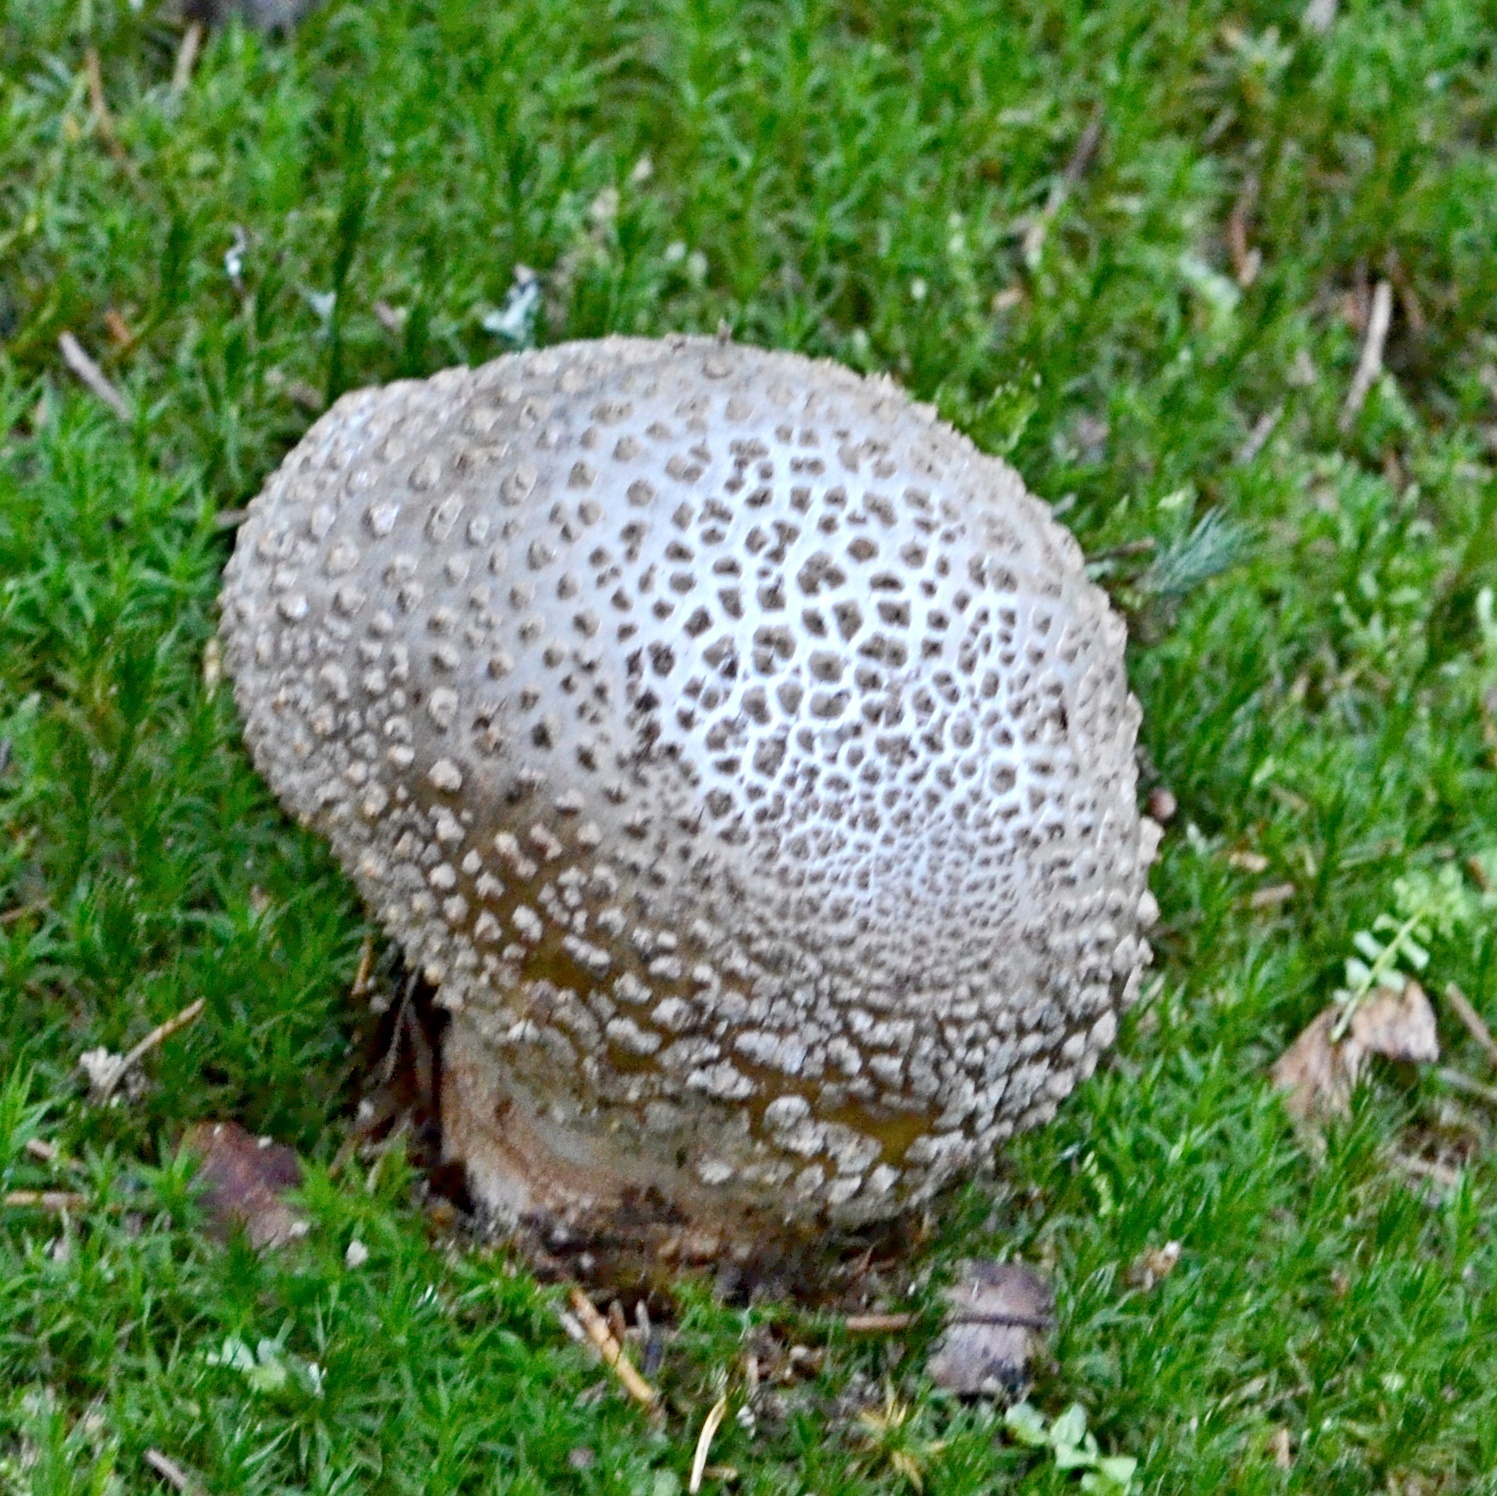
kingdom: Fungi
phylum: Basidiomycota
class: Agaricomycetes
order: Agaricales
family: Amanitaceae
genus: Amanita
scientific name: Amanita rubescens
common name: Blusher
